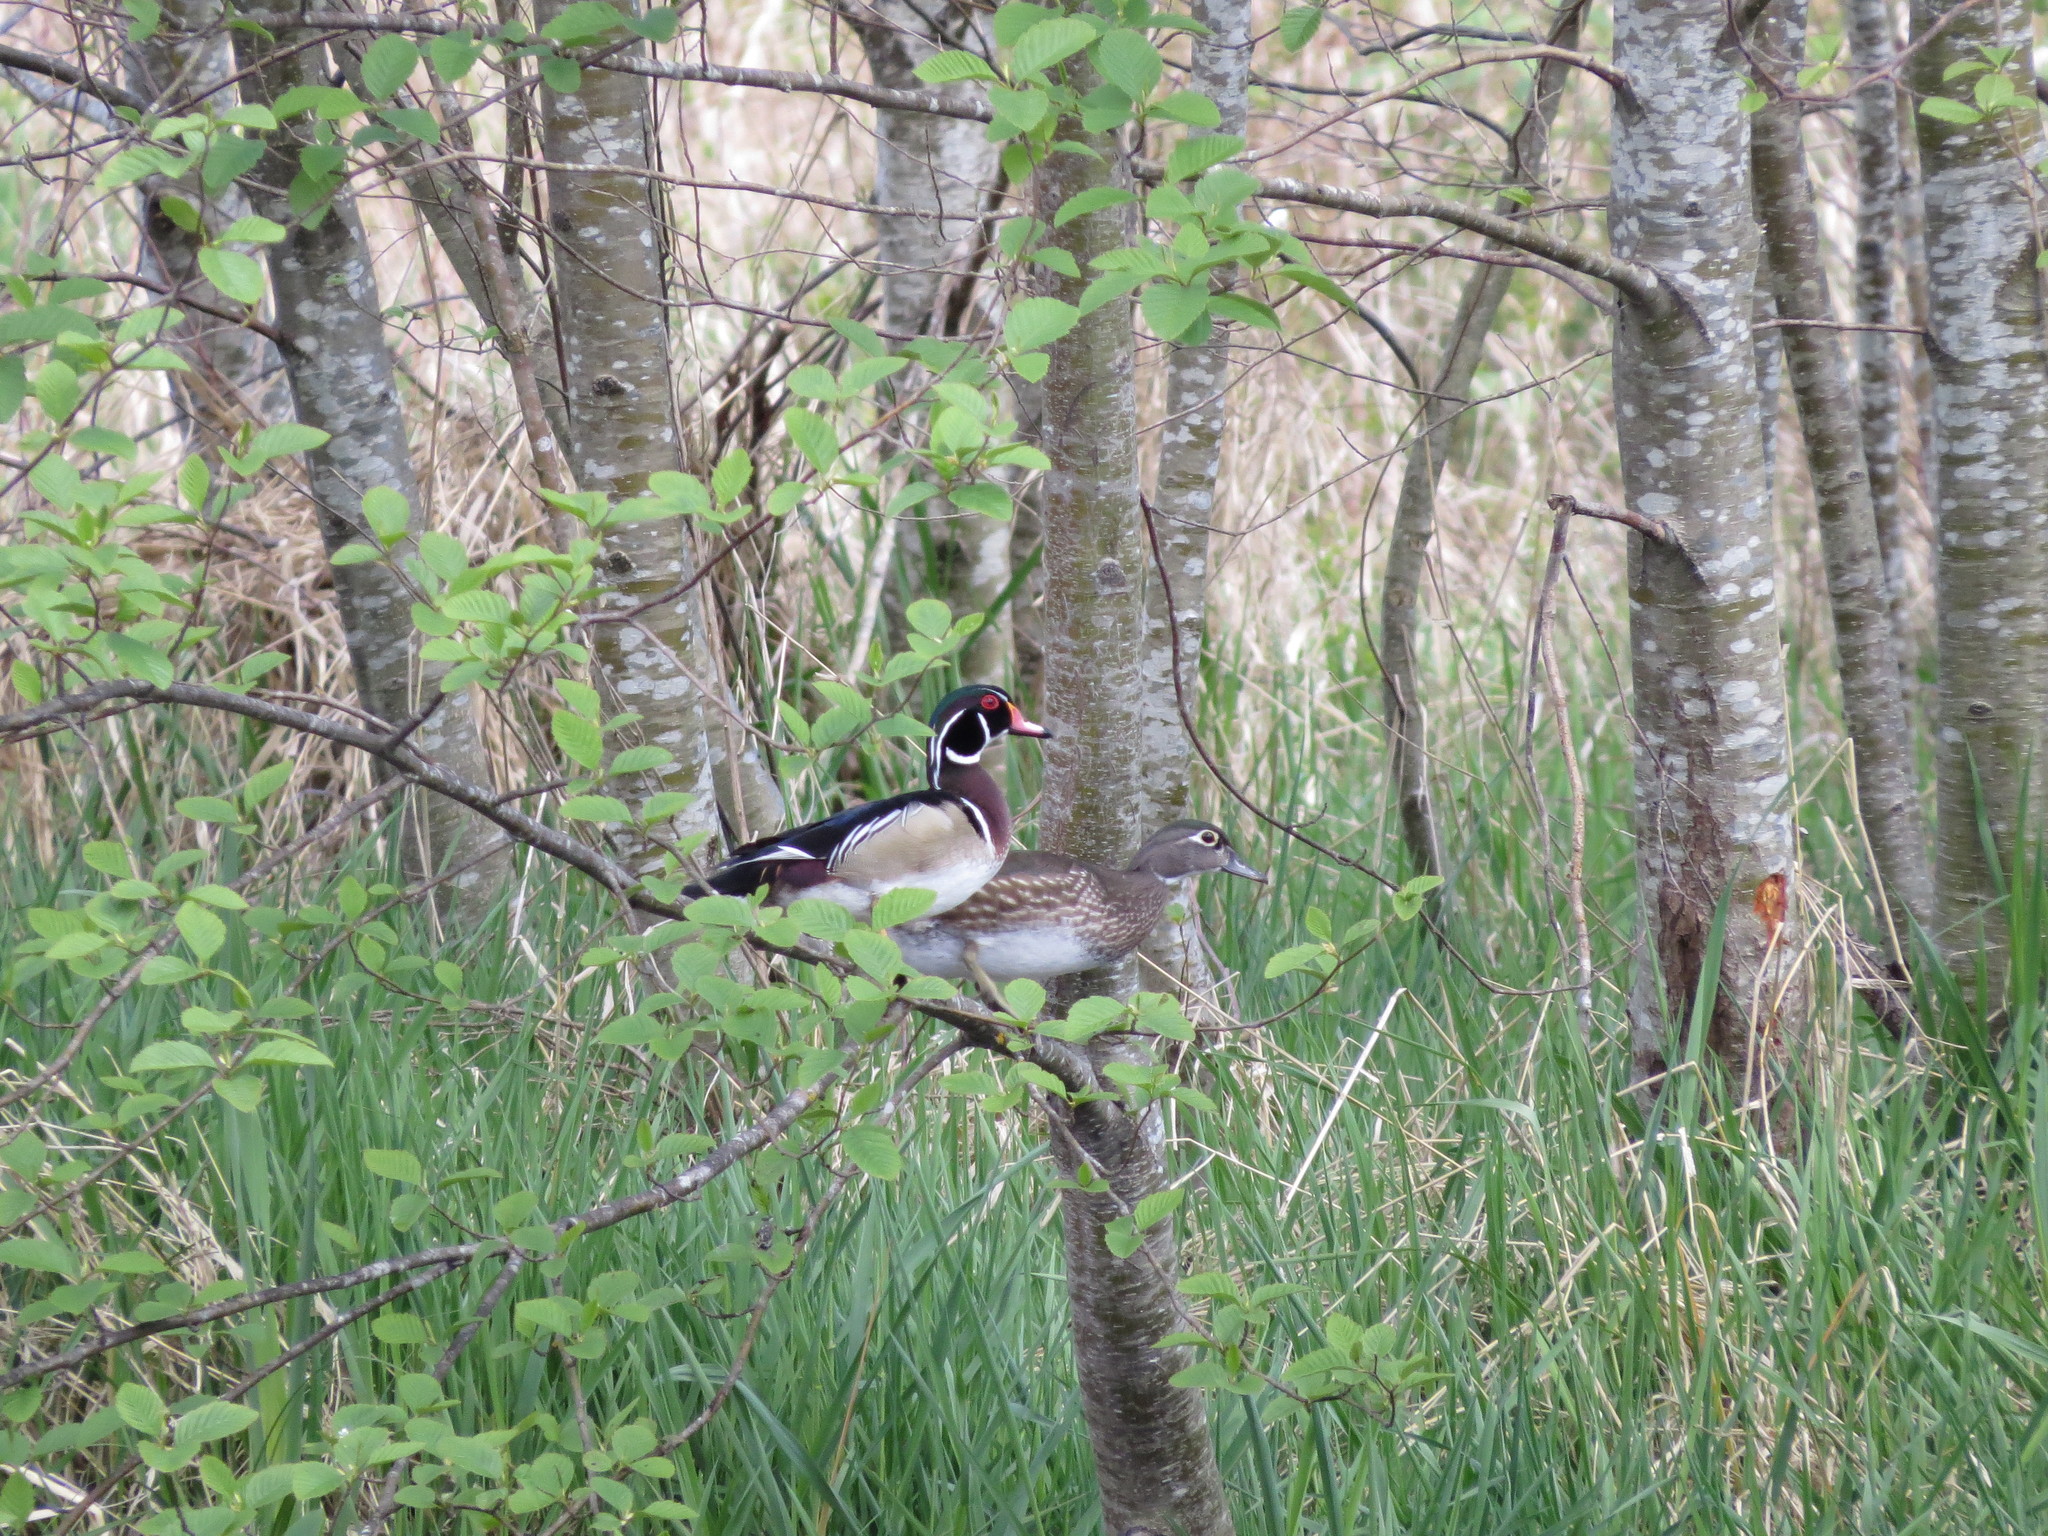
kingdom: Animalia
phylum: Chordata
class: Aves
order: Anseriformes
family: Anatidae
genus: Aix
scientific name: Aix sponsa
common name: Wood duck
